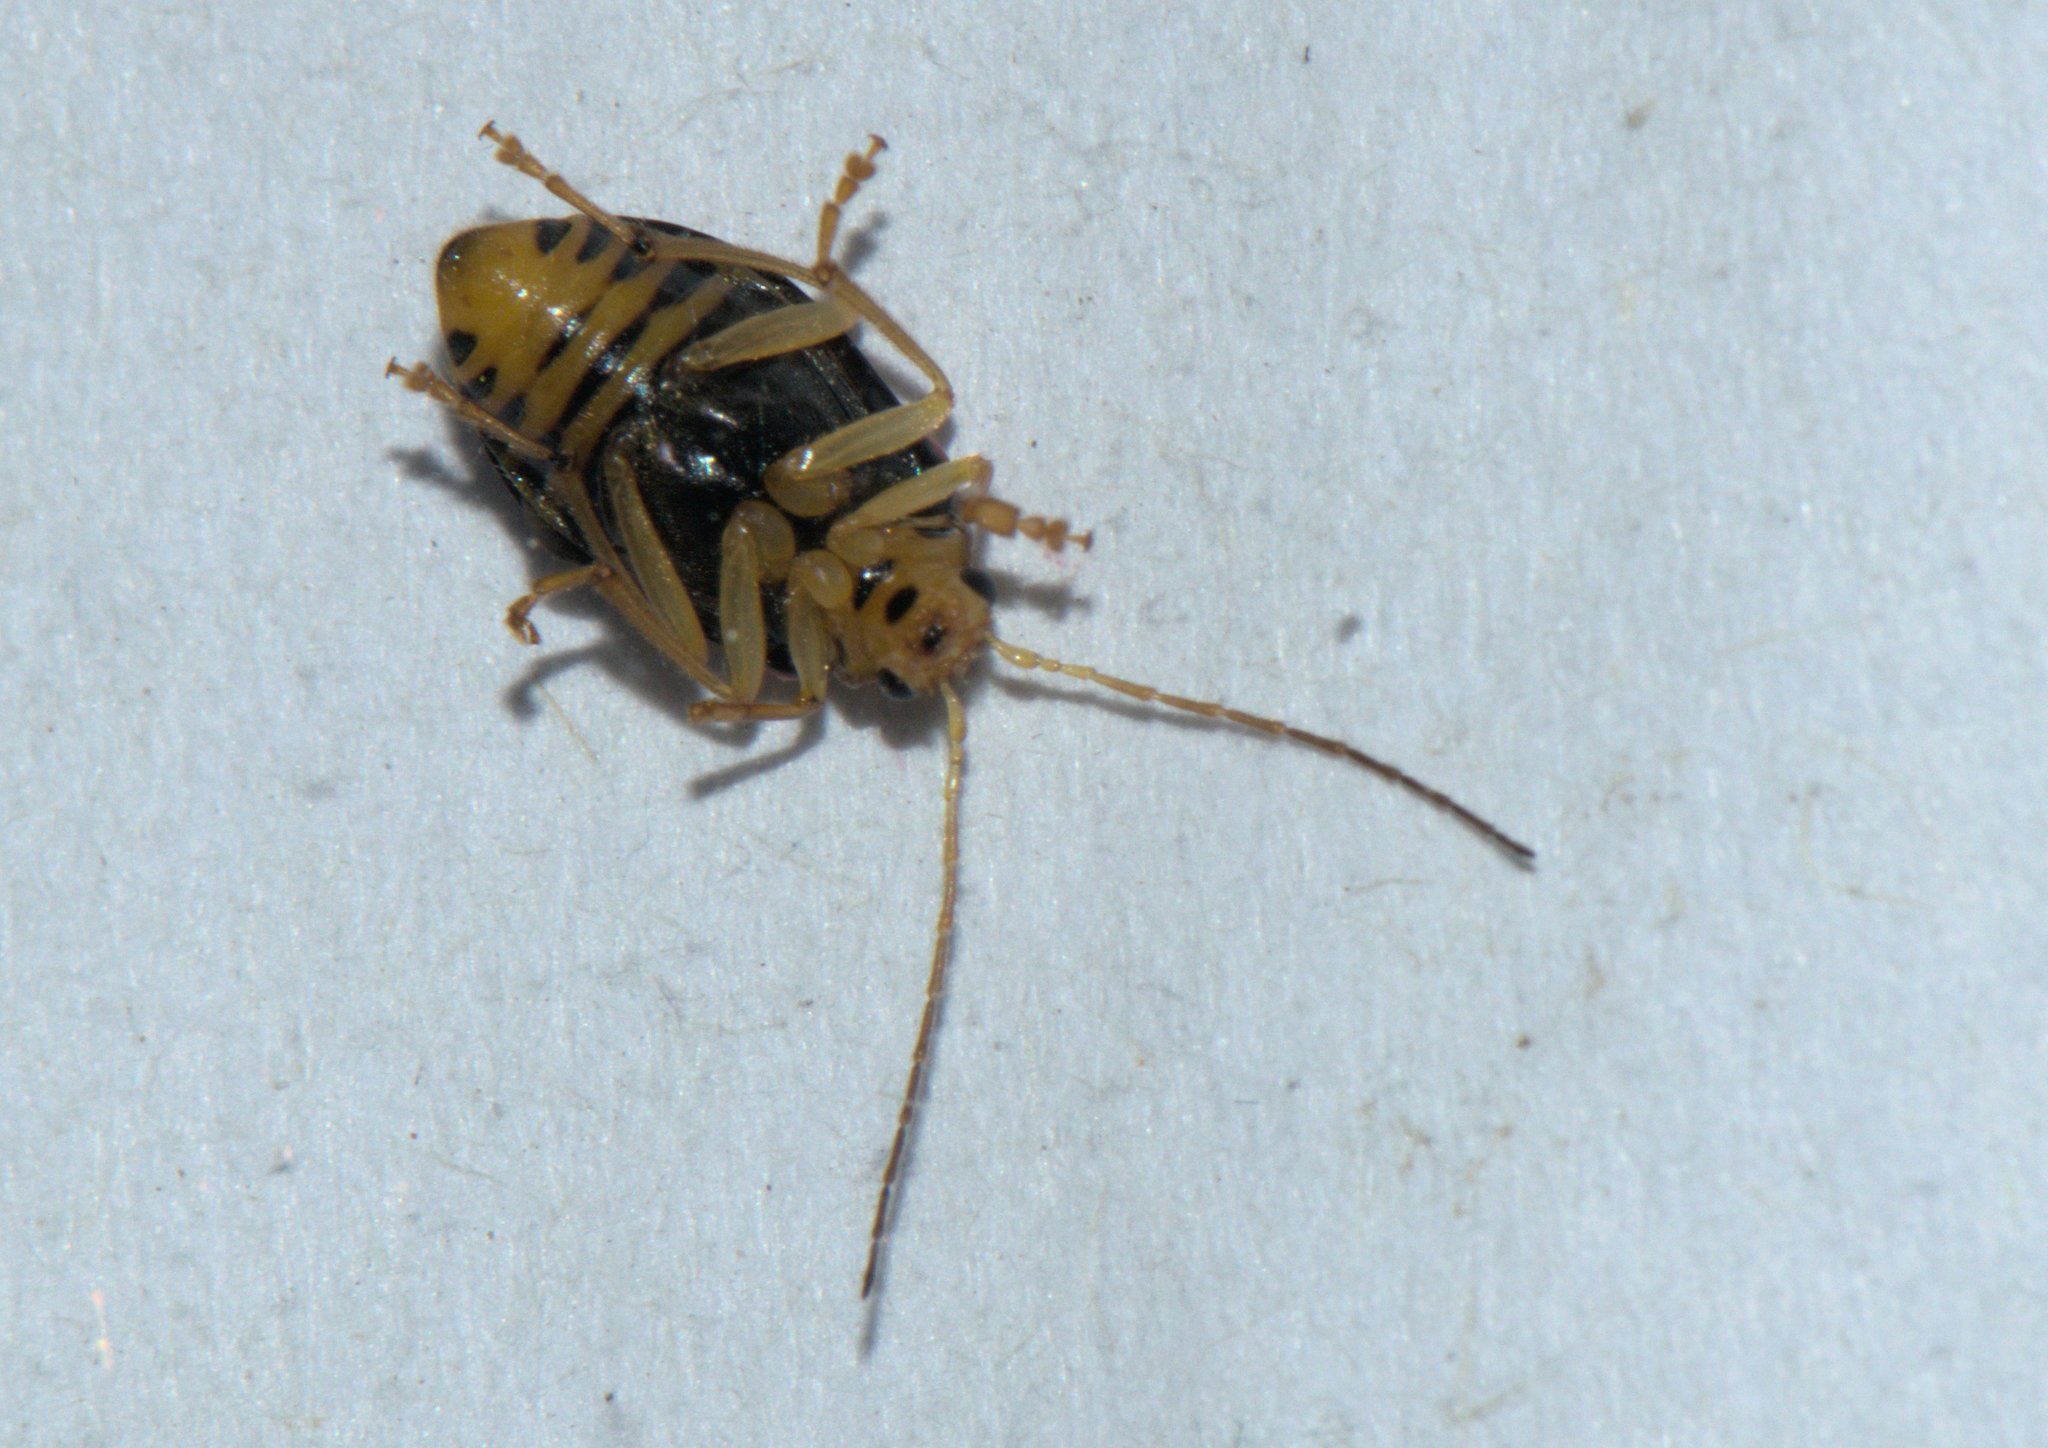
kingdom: Animalia
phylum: Arthropoda
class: Insecta
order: Coleoptera
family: Chrysomelidae
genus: Macrima
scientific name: Macrima
